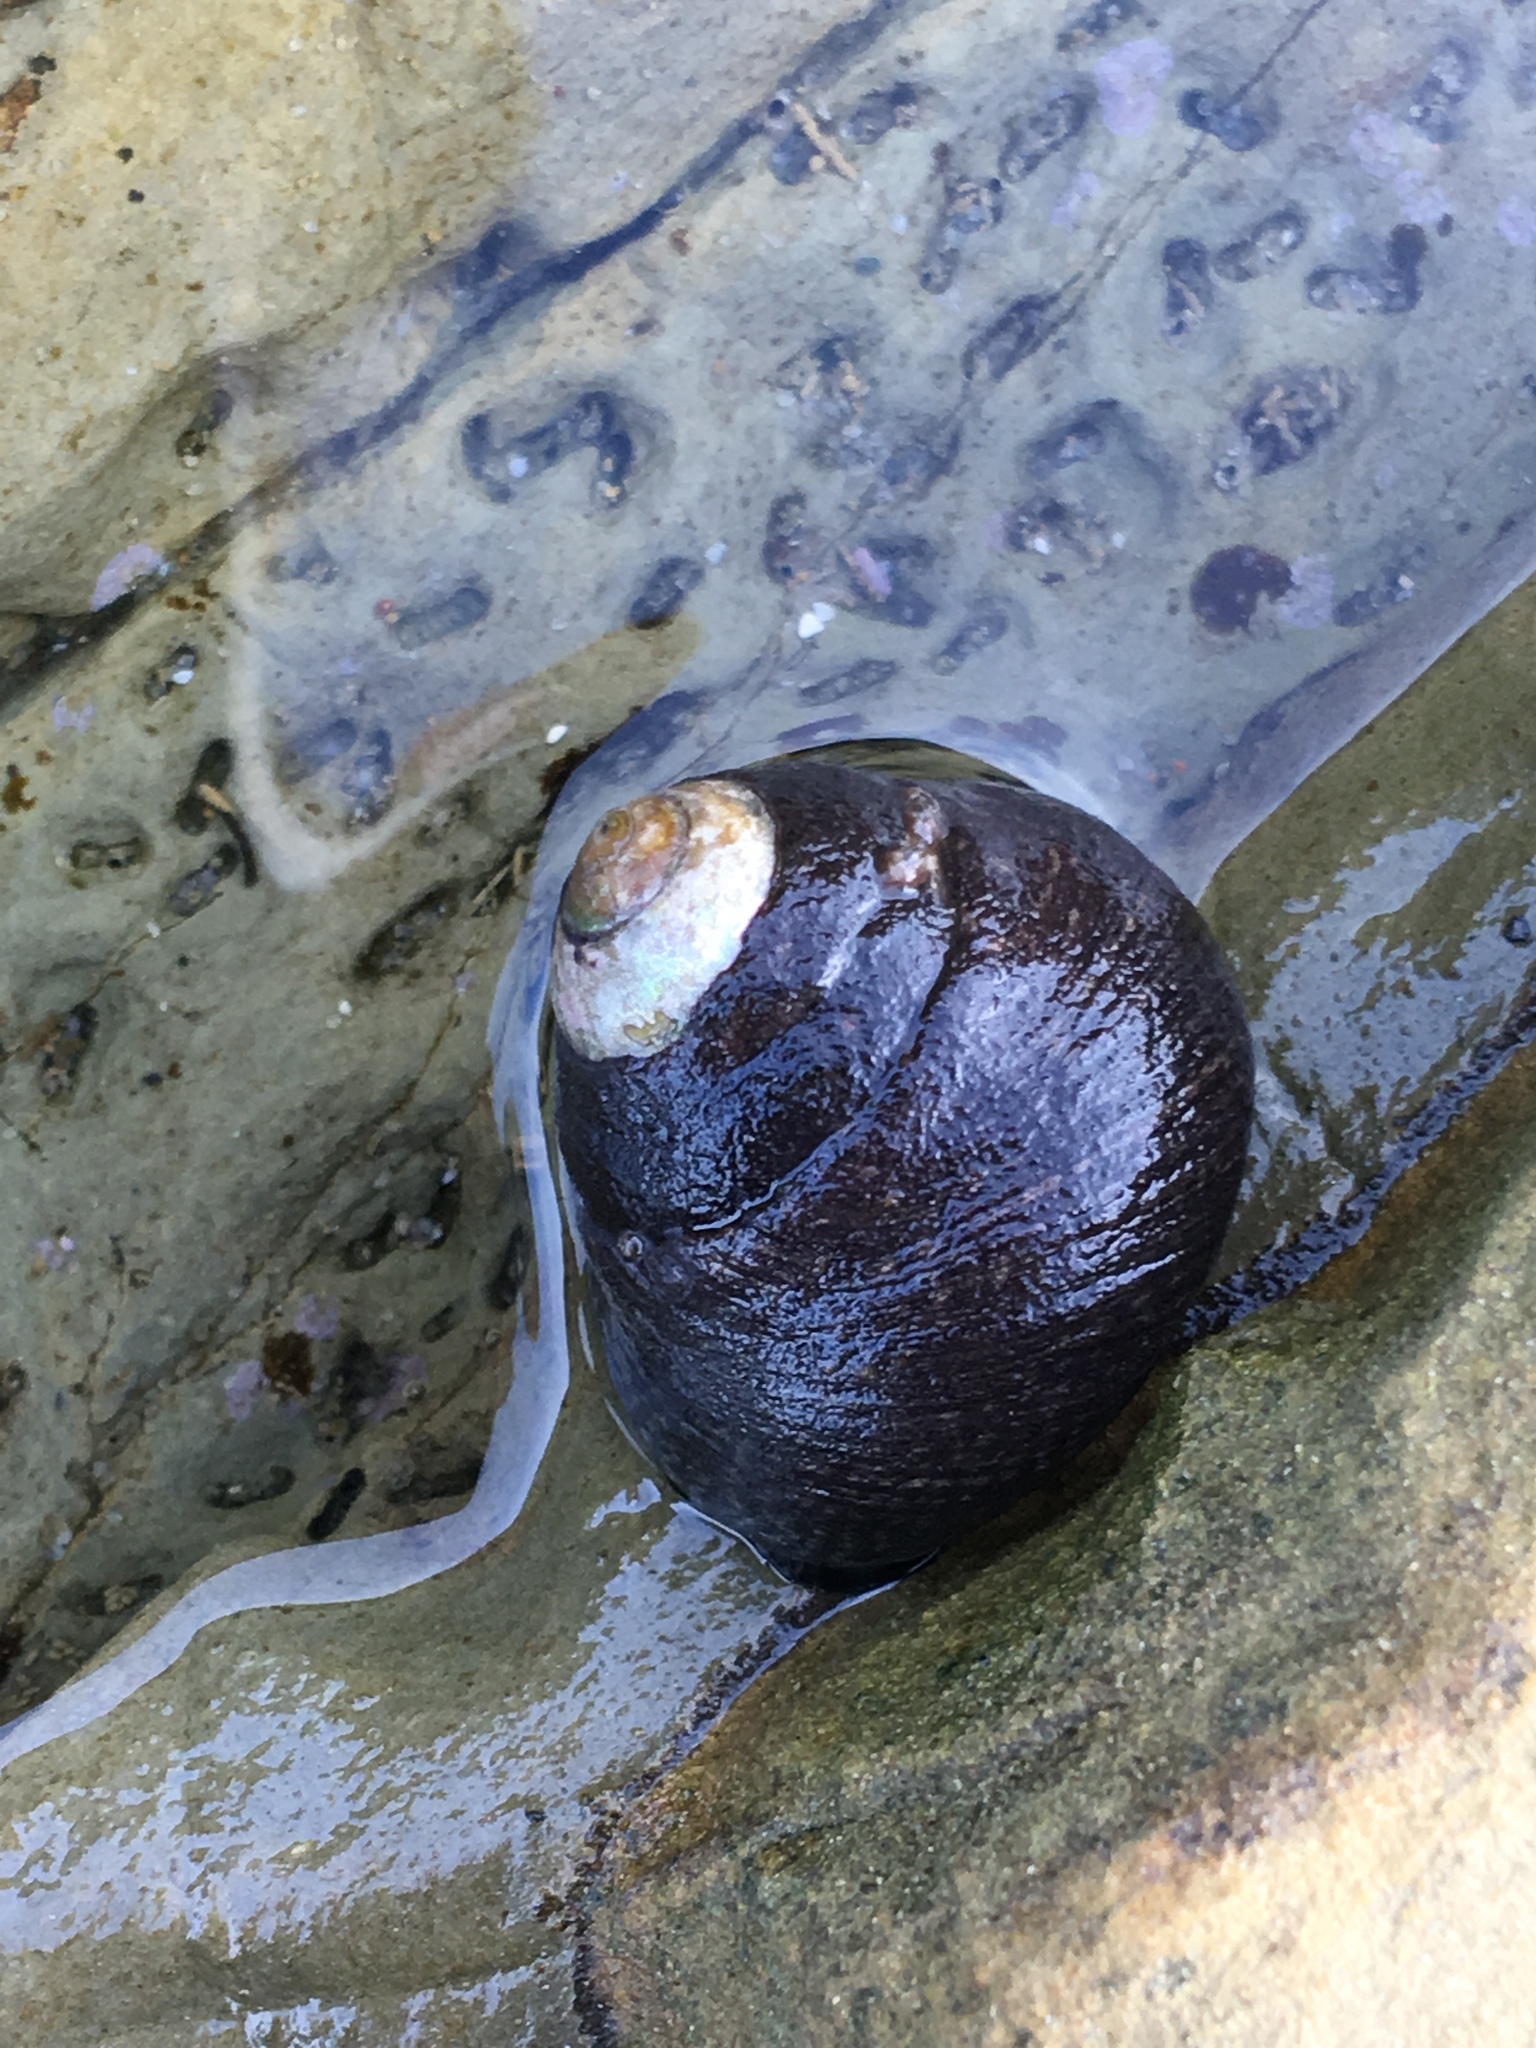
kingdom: Animalia
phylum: Mollusca
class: Gastropoda
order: Trochida
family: Tegulidae
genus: Tegula
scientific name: Tegula funebralis
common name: Black tegula
